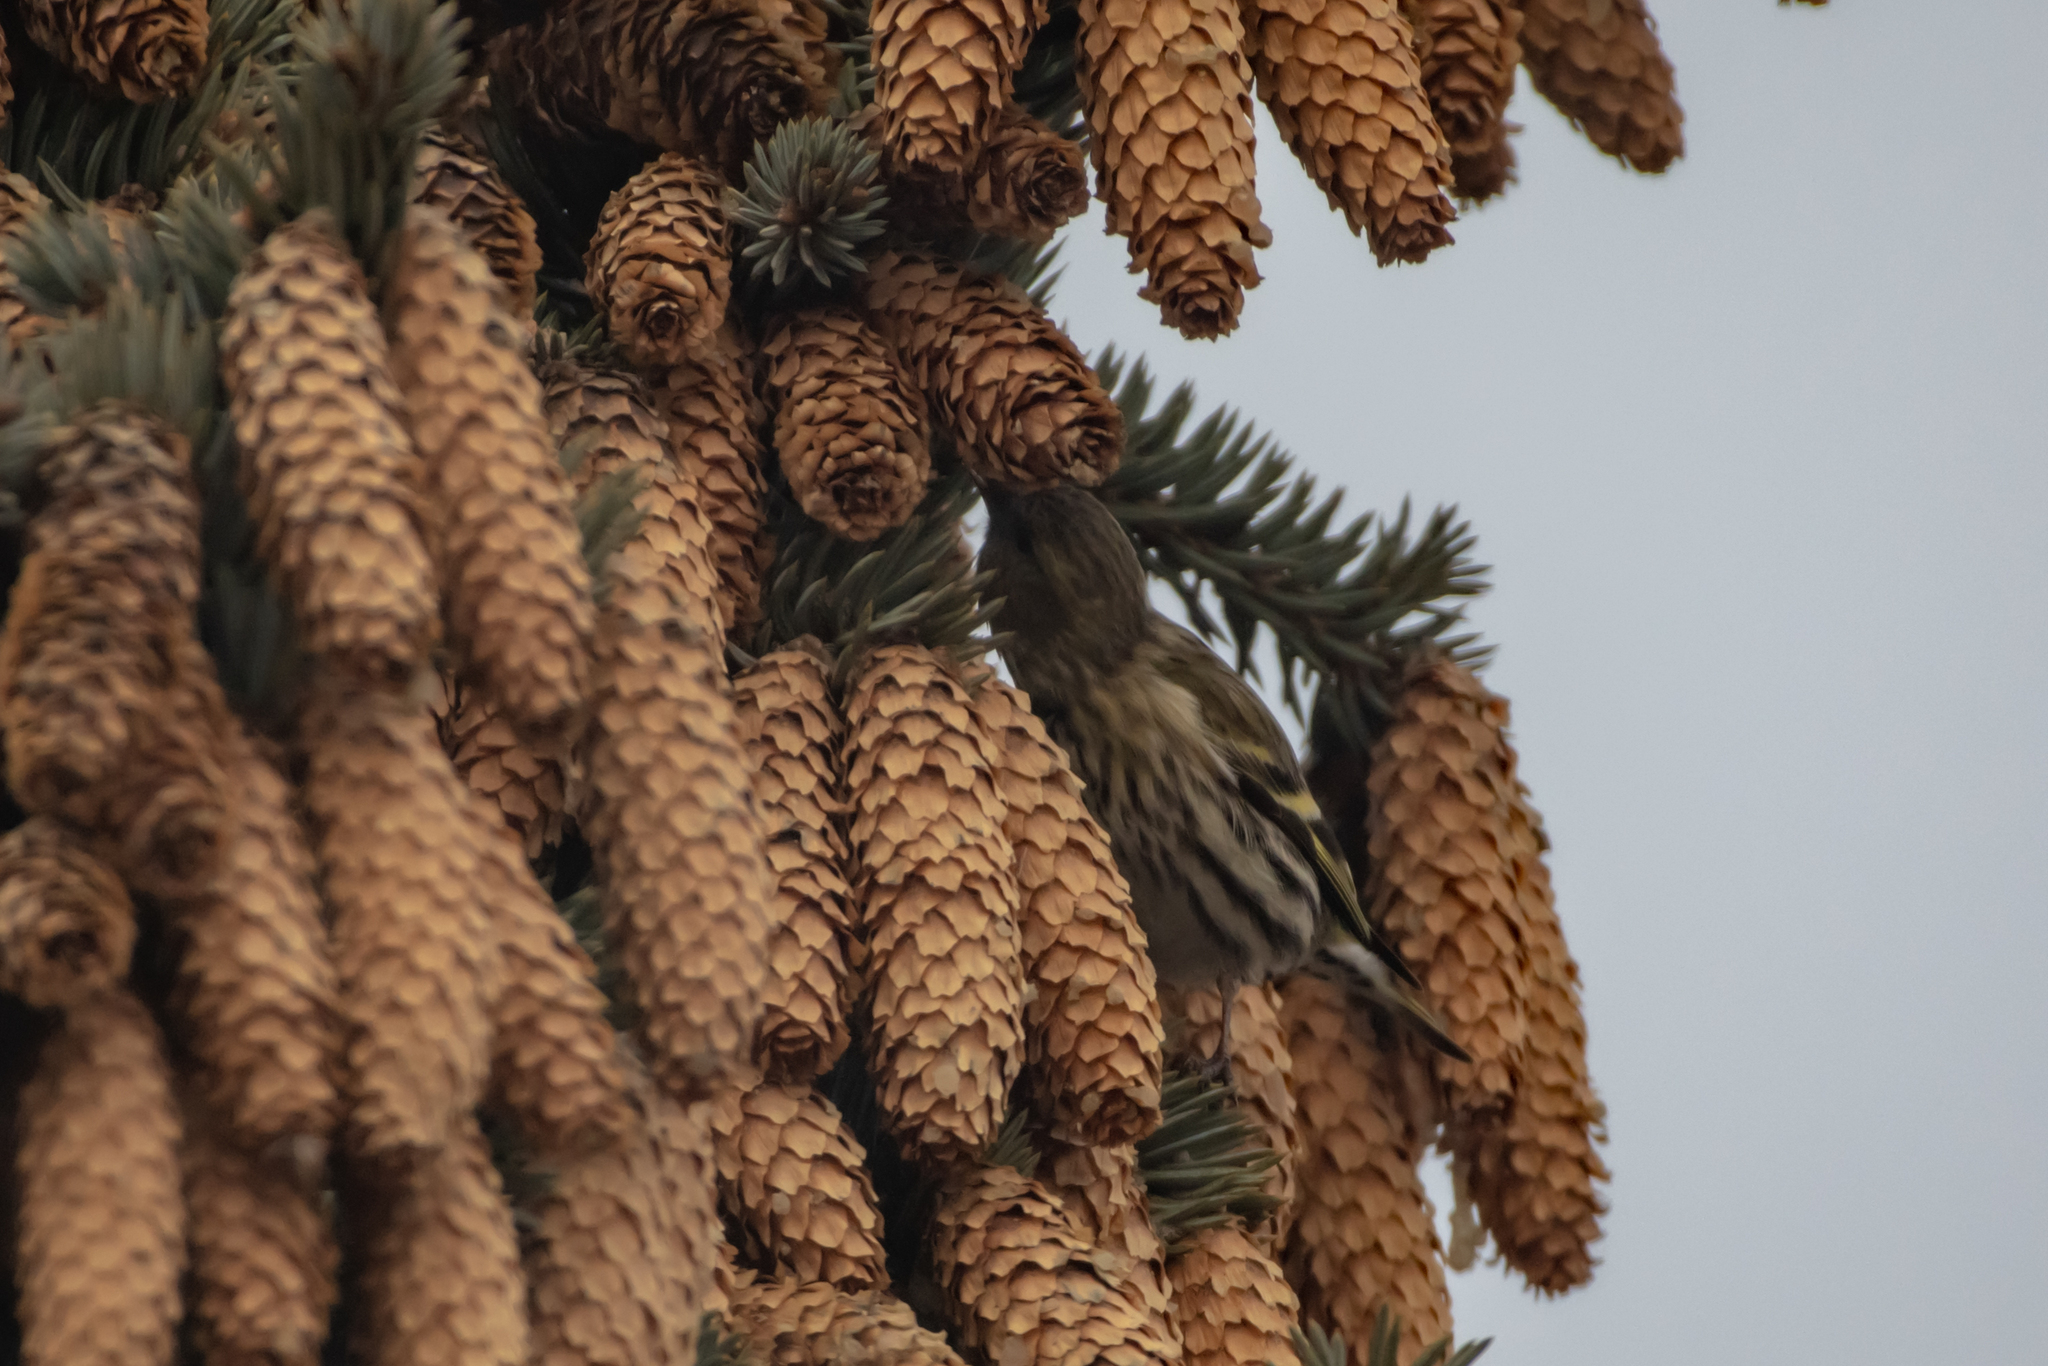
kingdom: Animalia
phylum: Chordata
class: Aves
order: Passeriformes
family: Fringillidae
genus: Spinus
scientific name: Spinus spinus
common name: Eurasian siskin
